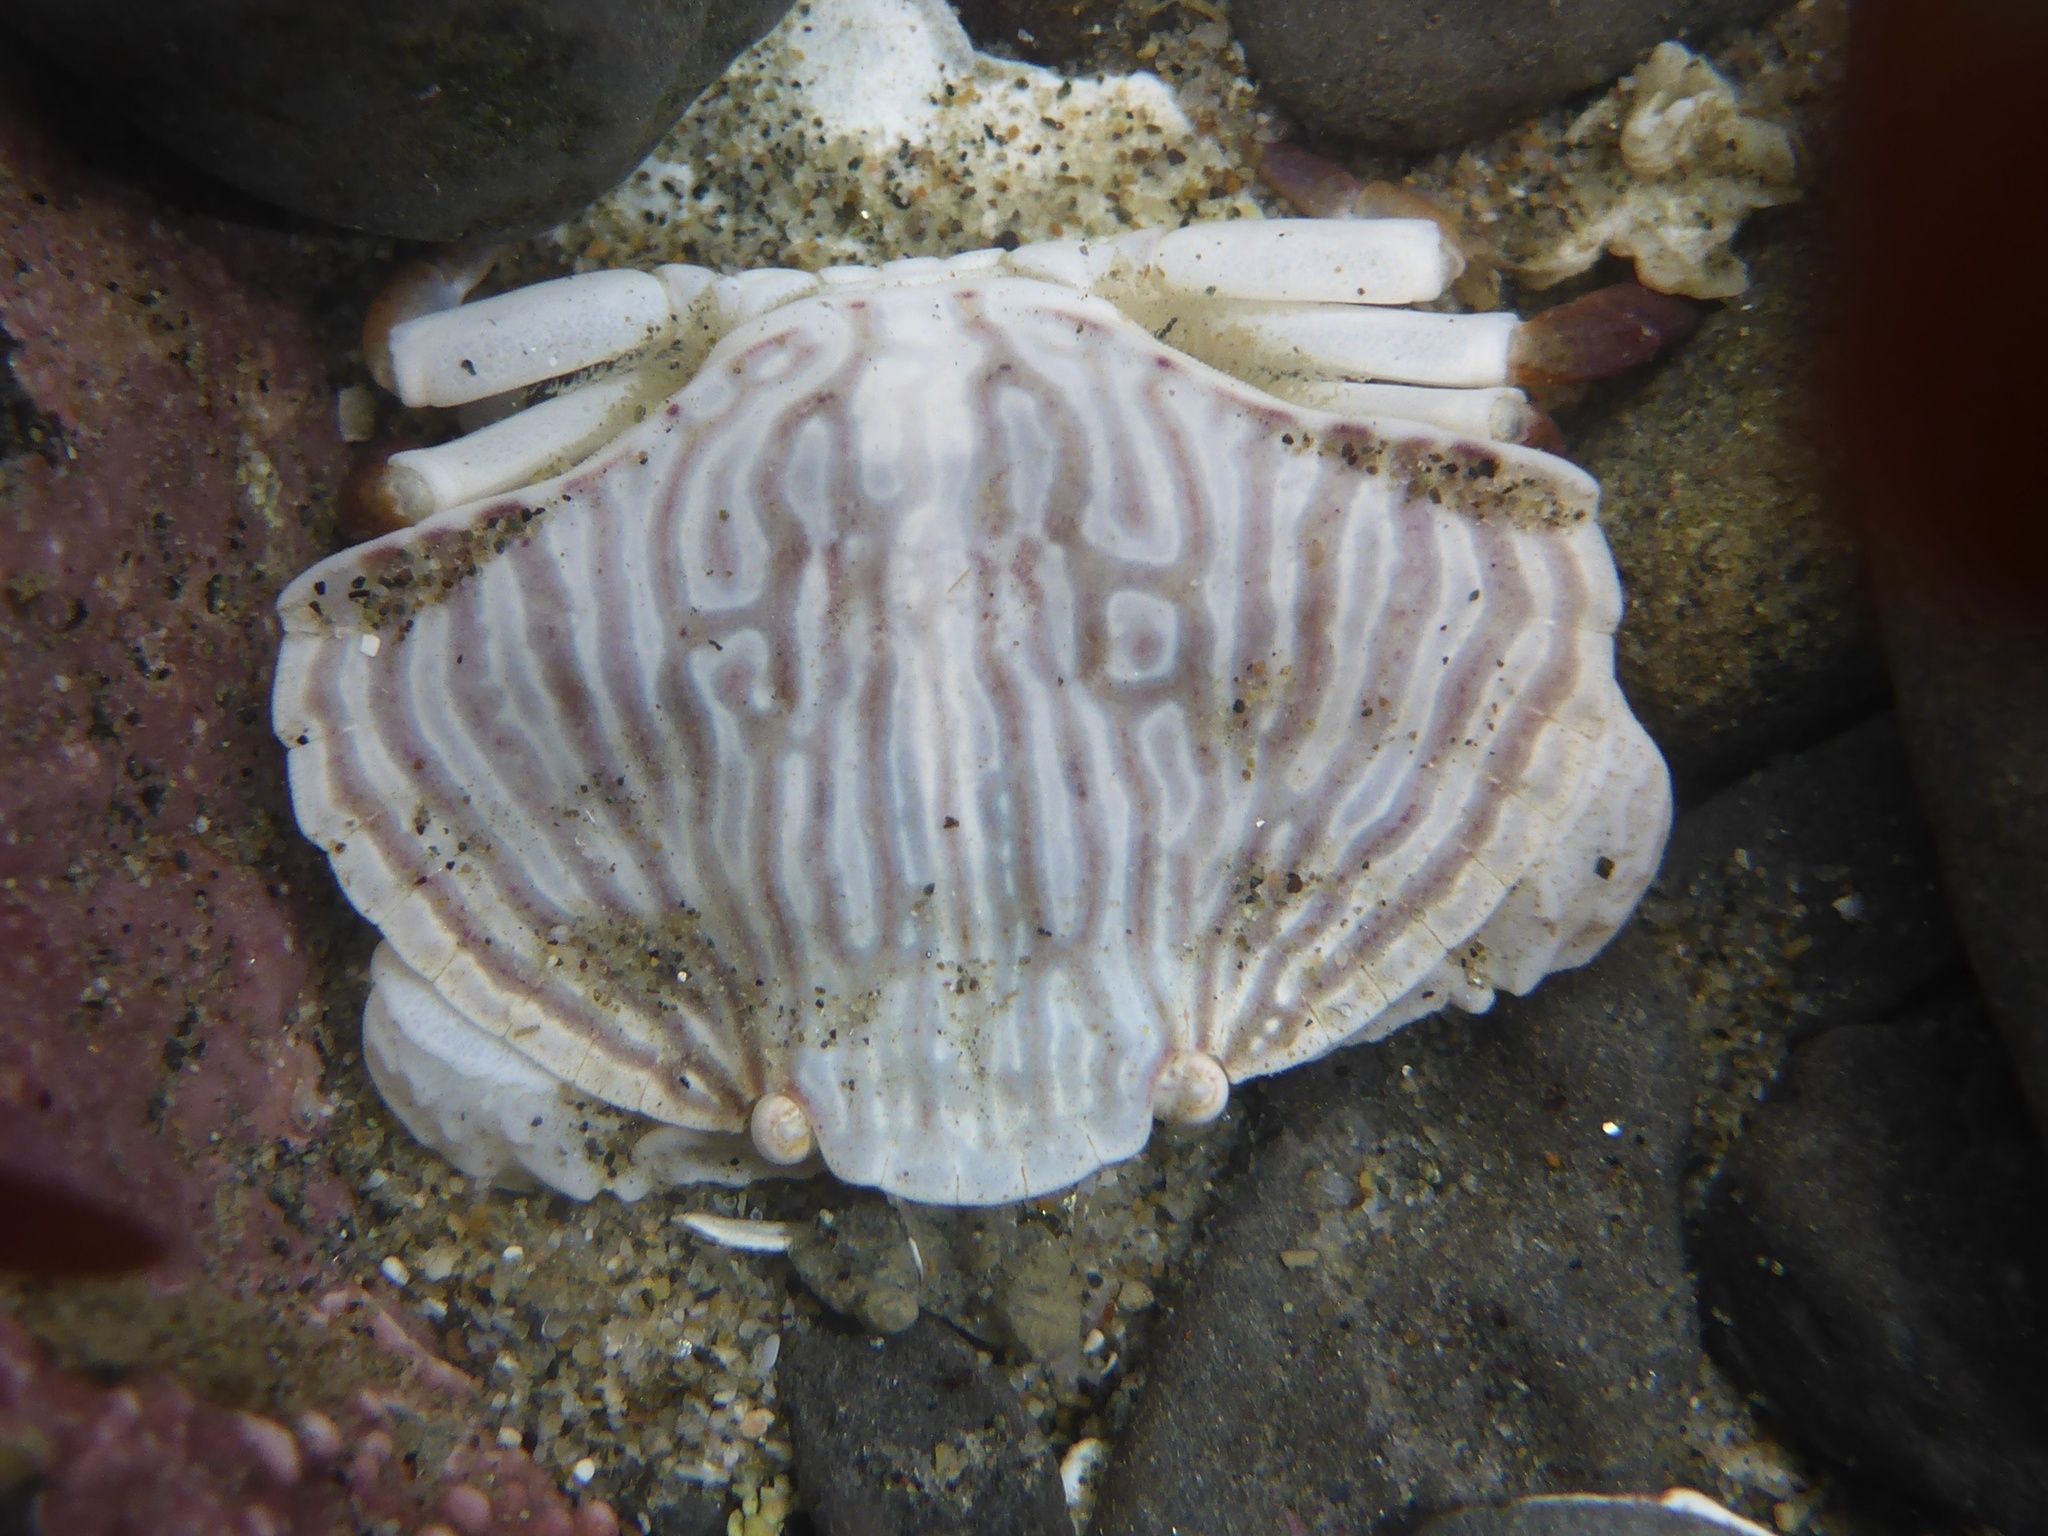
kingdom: Animalia
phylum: Arthropoda
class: Malacostraca
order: Decapoda
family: Cancridae
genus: Cancer
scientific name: Cancer productus
